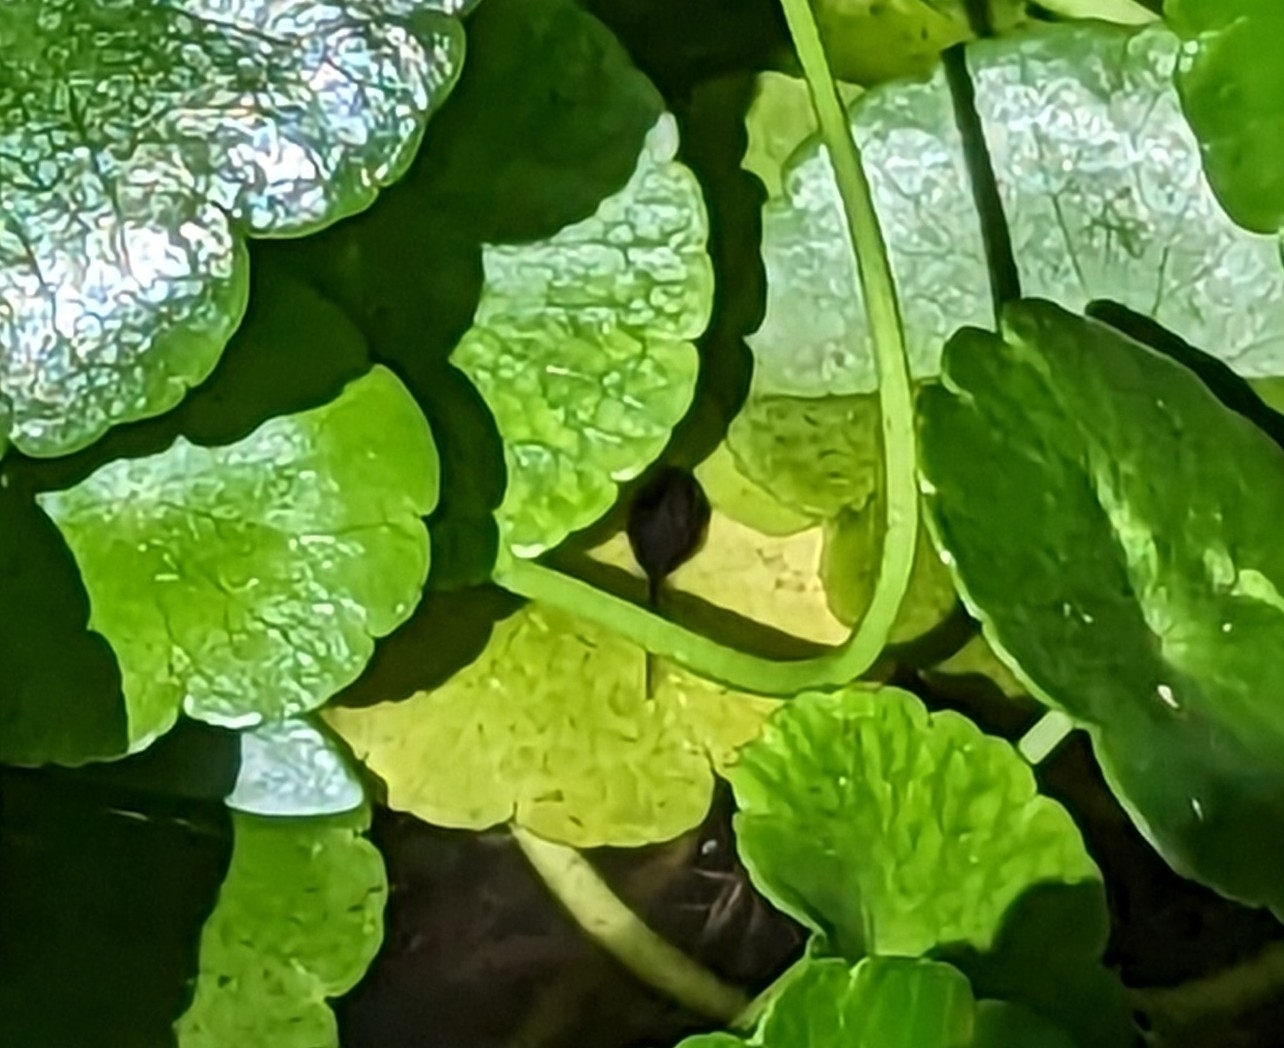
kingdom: Animalia
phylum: Chordata
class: Amphibia
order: Anura
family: Bufonidae
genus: Rhinella
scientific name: Rhinella marina
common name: Cane toad
